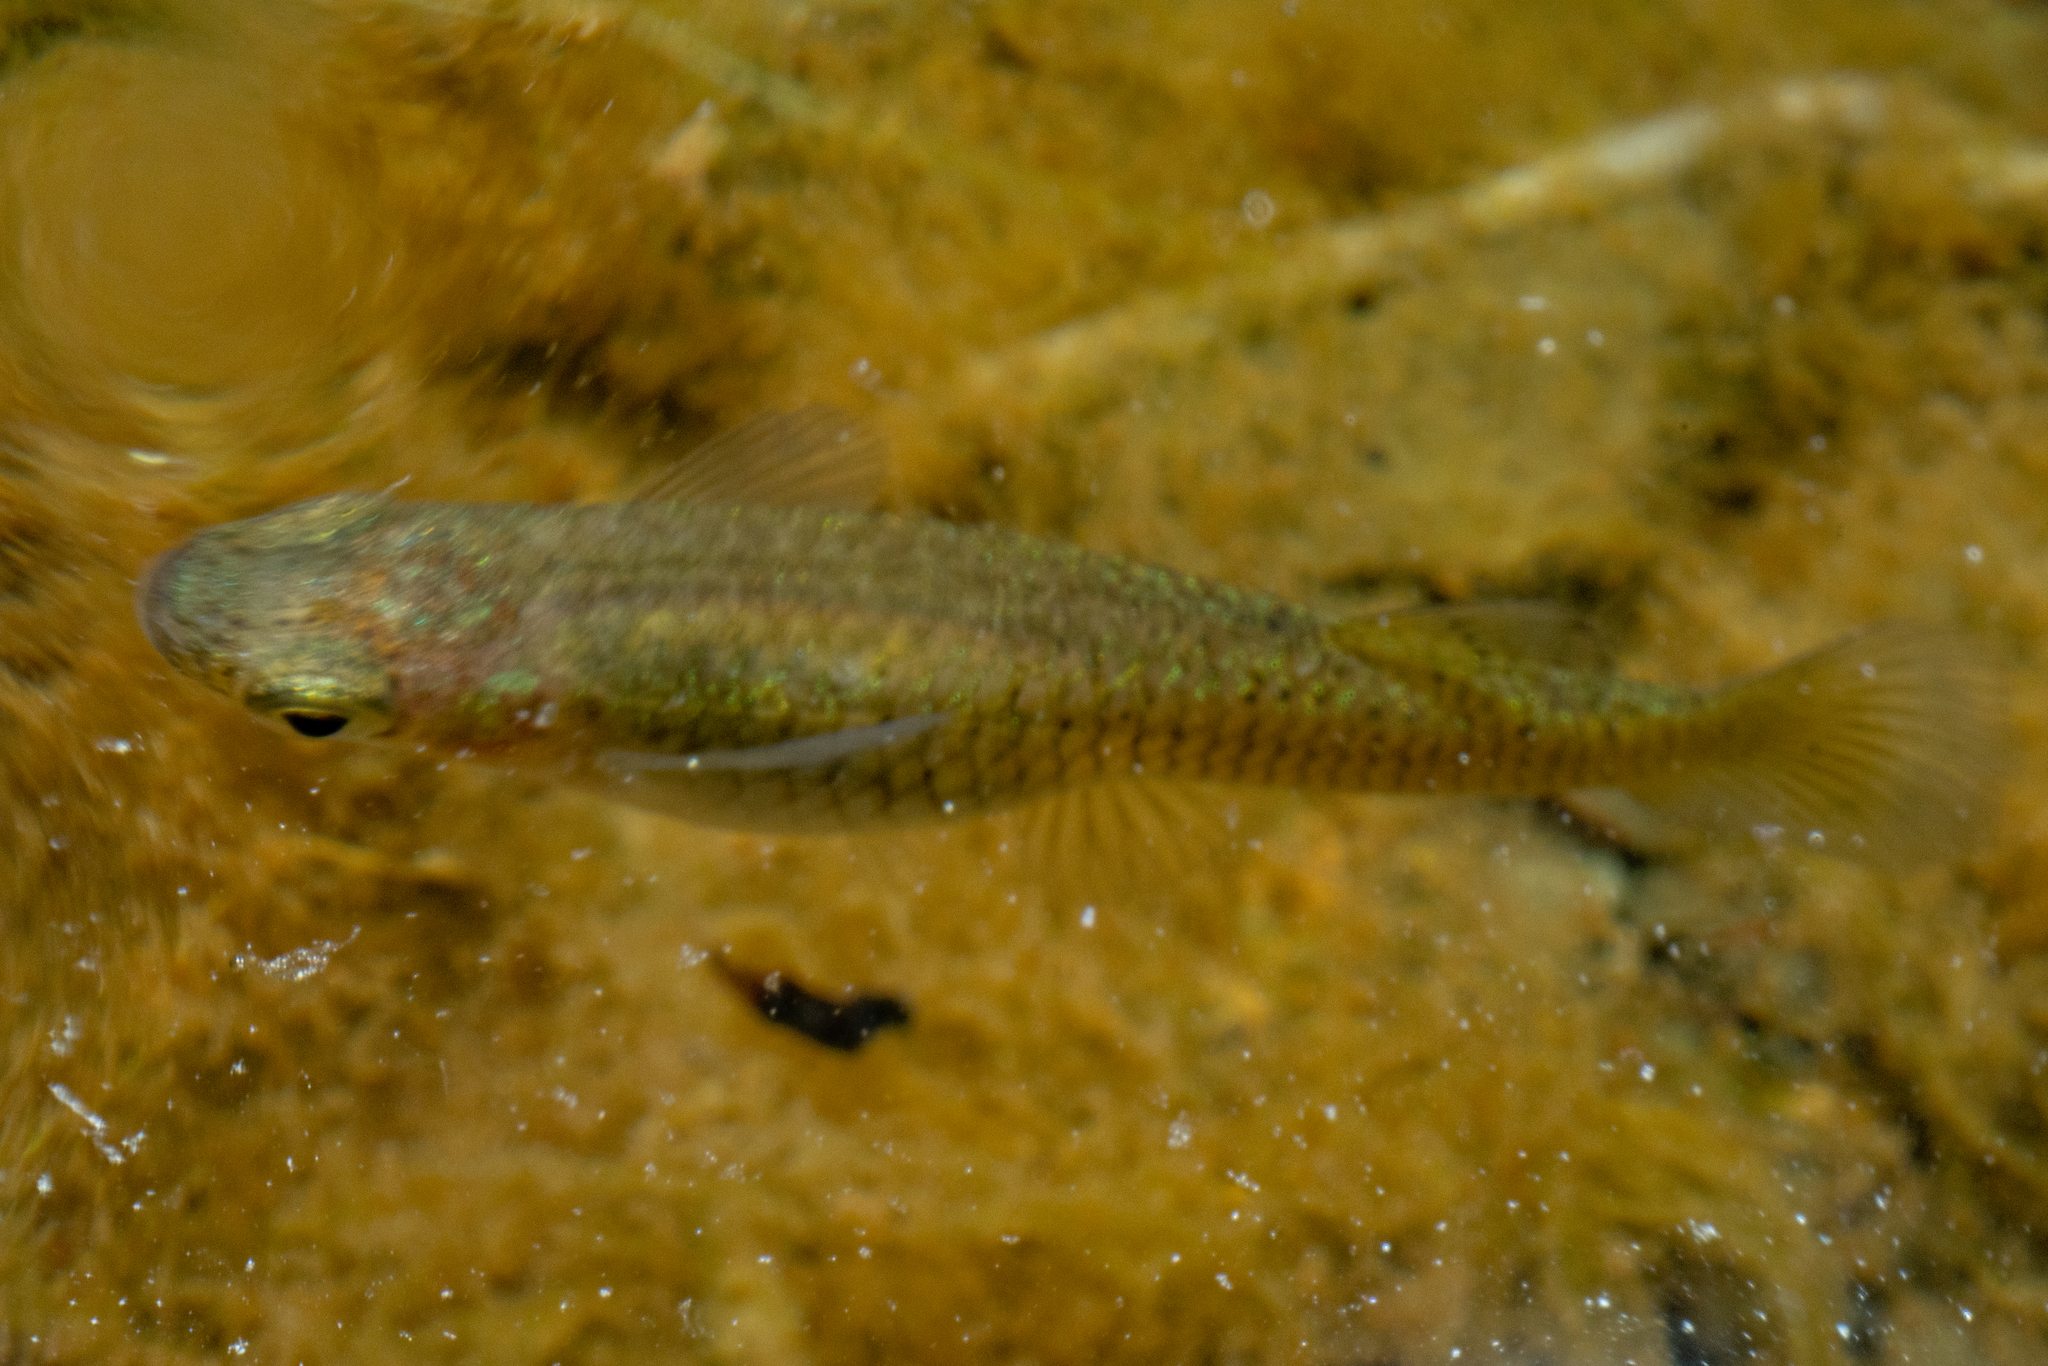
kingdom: Animalia
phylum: Chordata
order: Cyprinodontiformes
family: Poeciliidae
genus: Gambusia
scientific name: Gambusia affinis
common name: Mosquitofish
